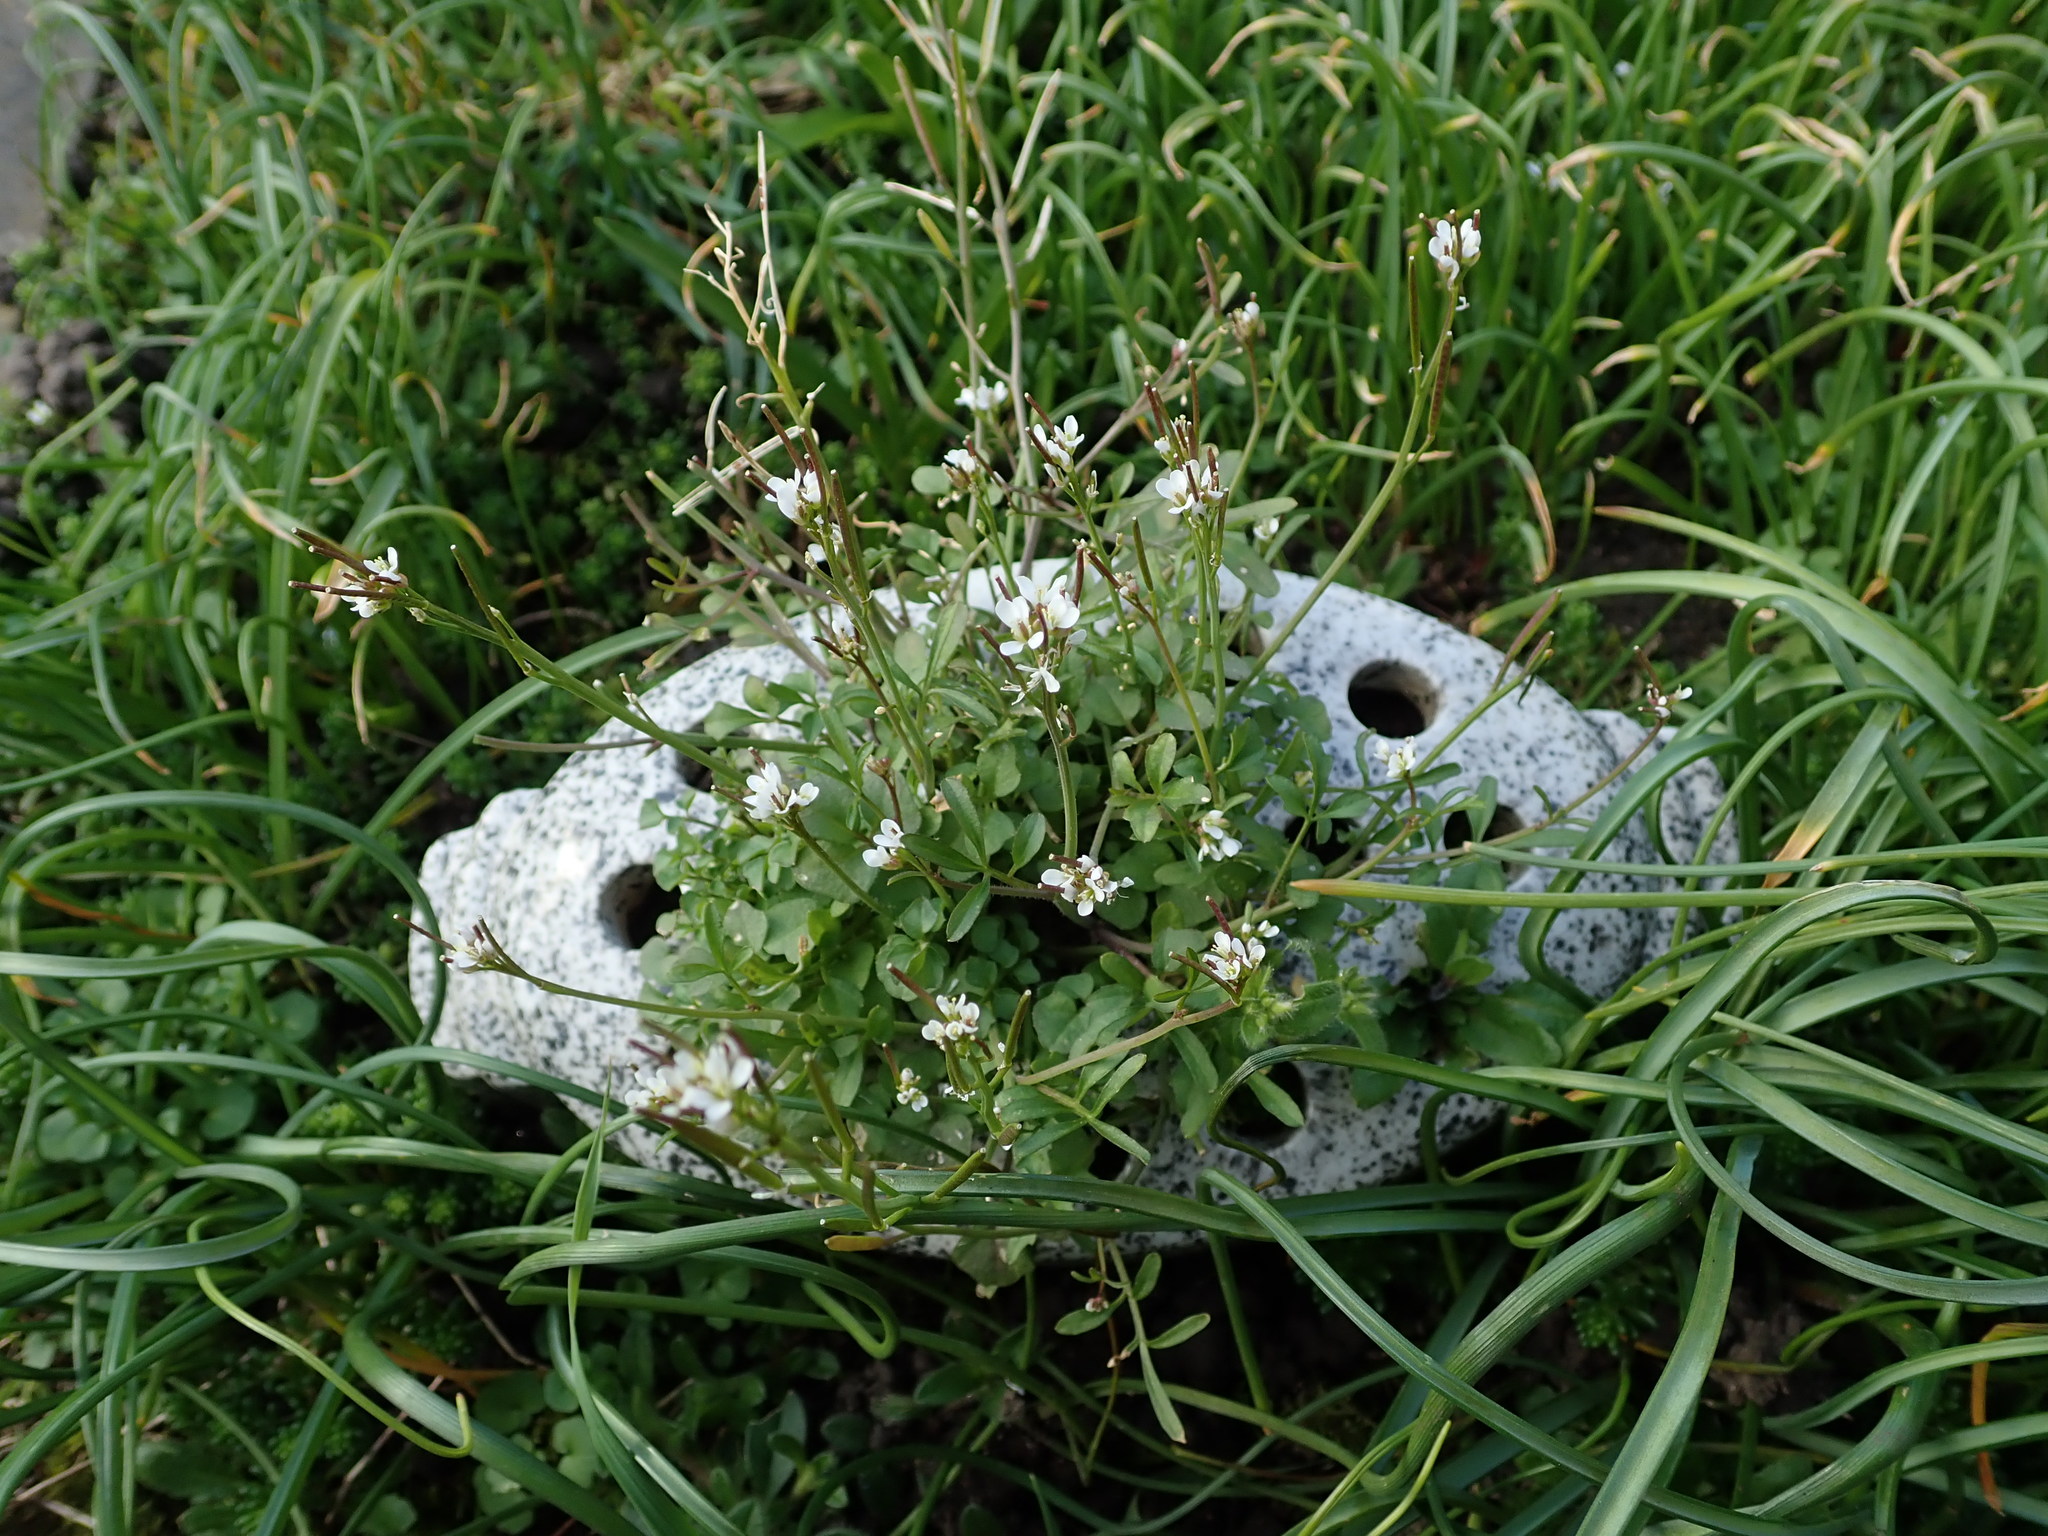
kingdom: Plantae
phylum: Tracheophyta
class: Magnoliopsida
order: Brassicales
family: Brassicaceae
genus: Cardamine
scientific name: Cardamine hirsuta
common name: Hairy bittercress
